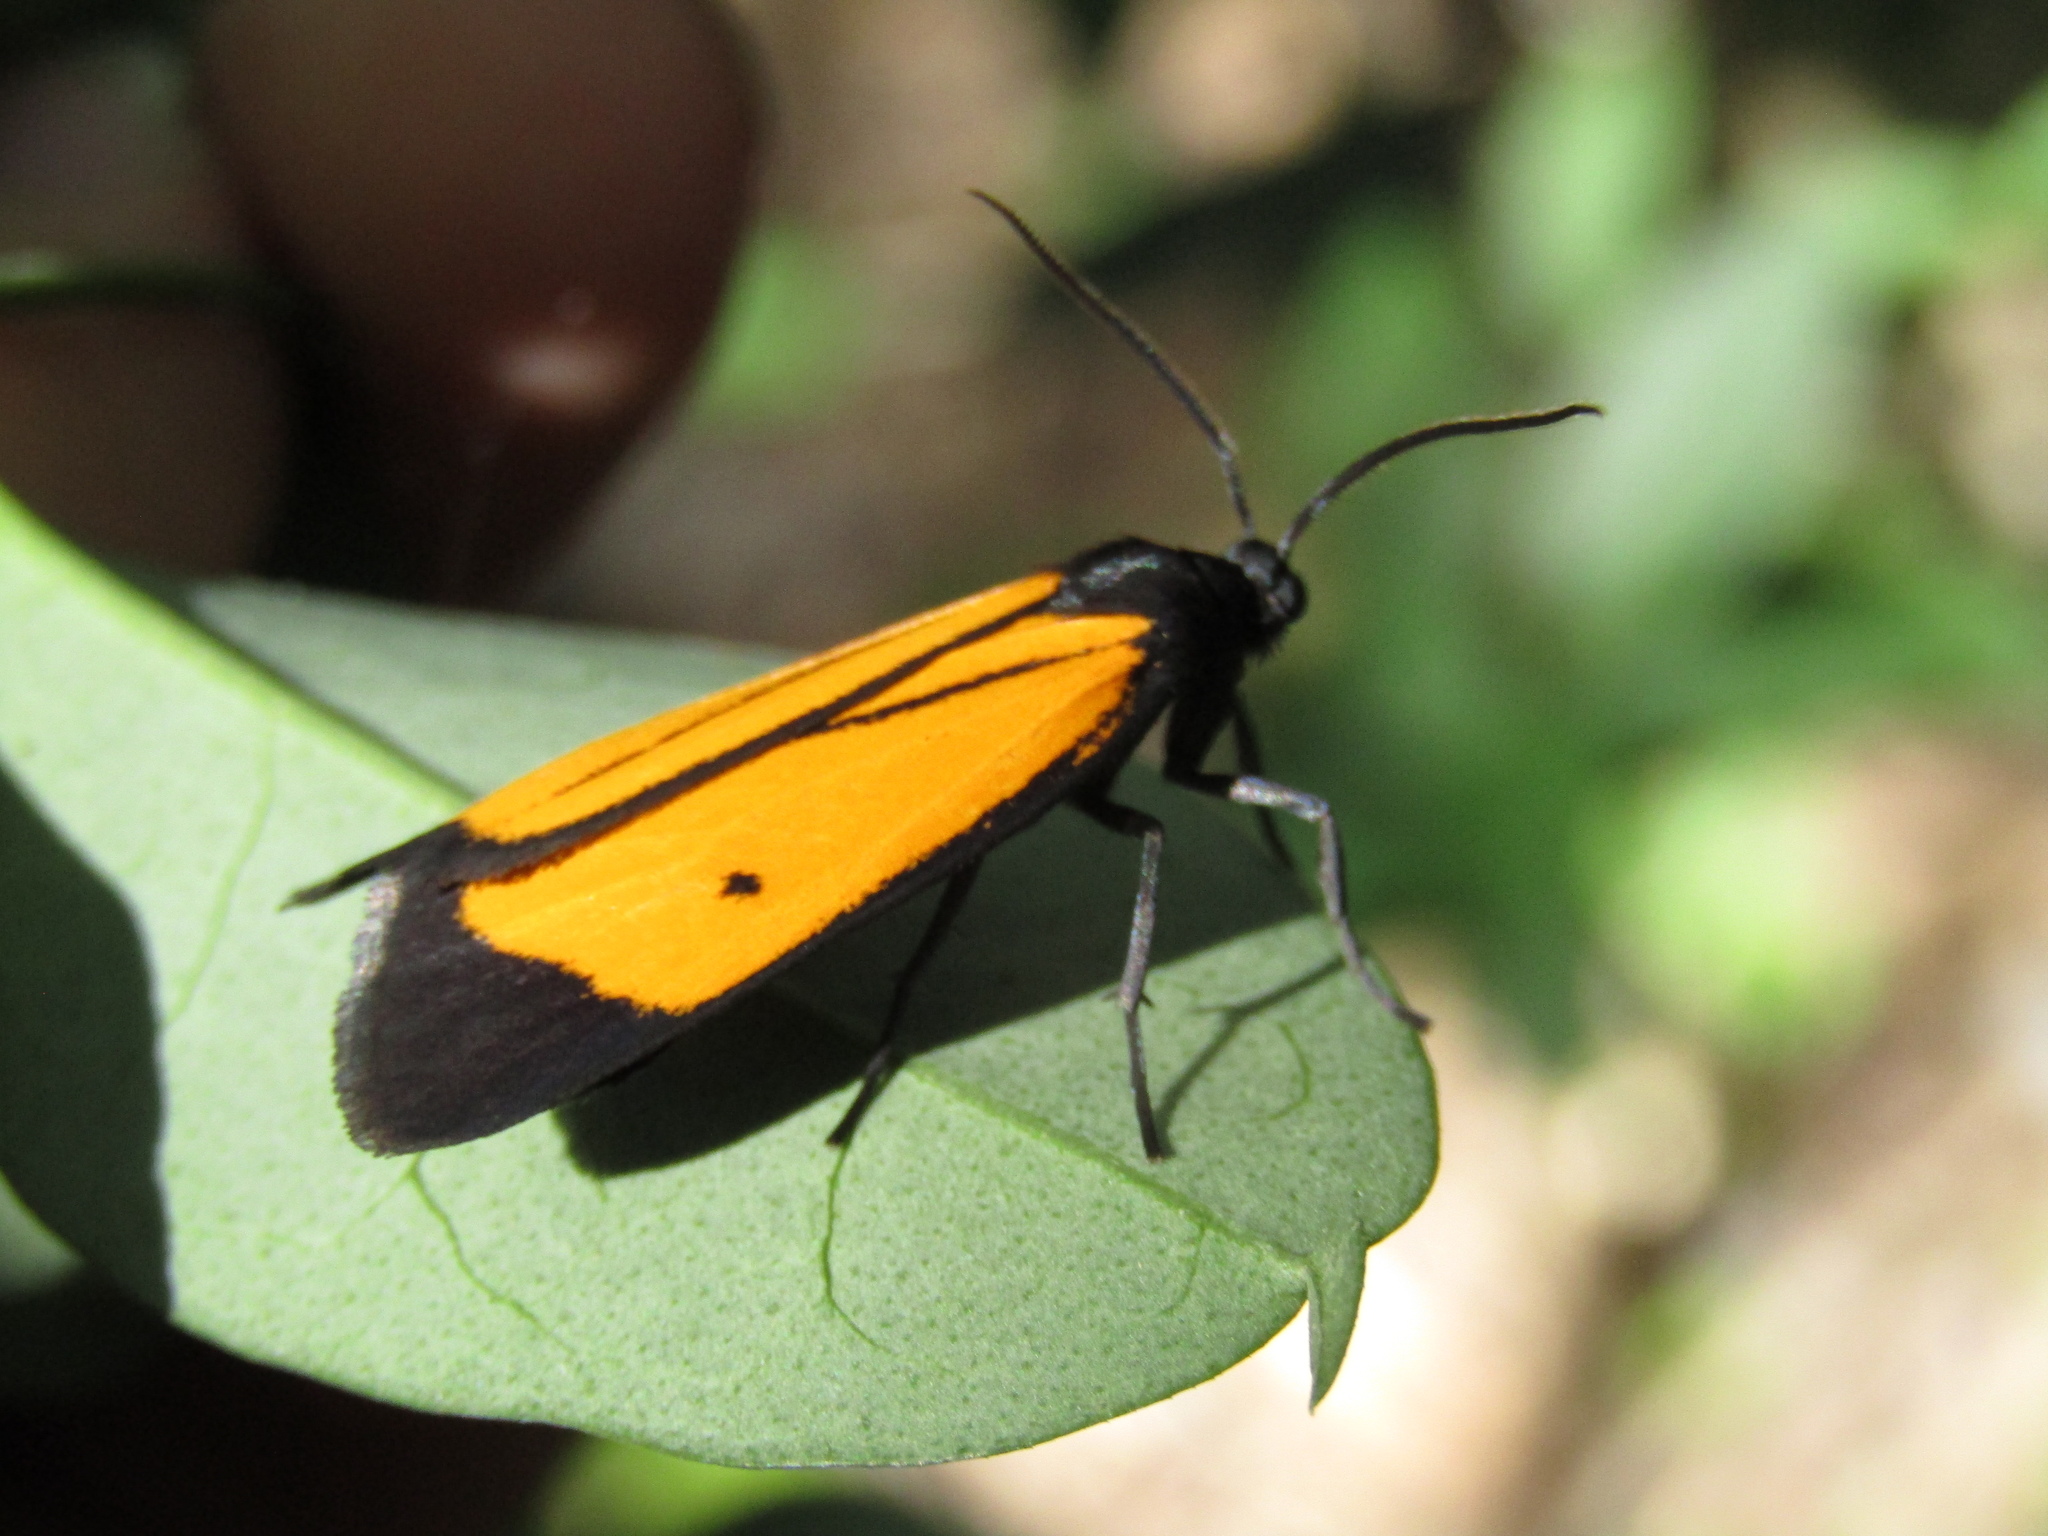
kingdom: Animalia
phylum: Arthropoda
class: Insecta
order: Lepidoptera
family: Erebidae
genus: Paratype
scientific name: Paratype univitta
